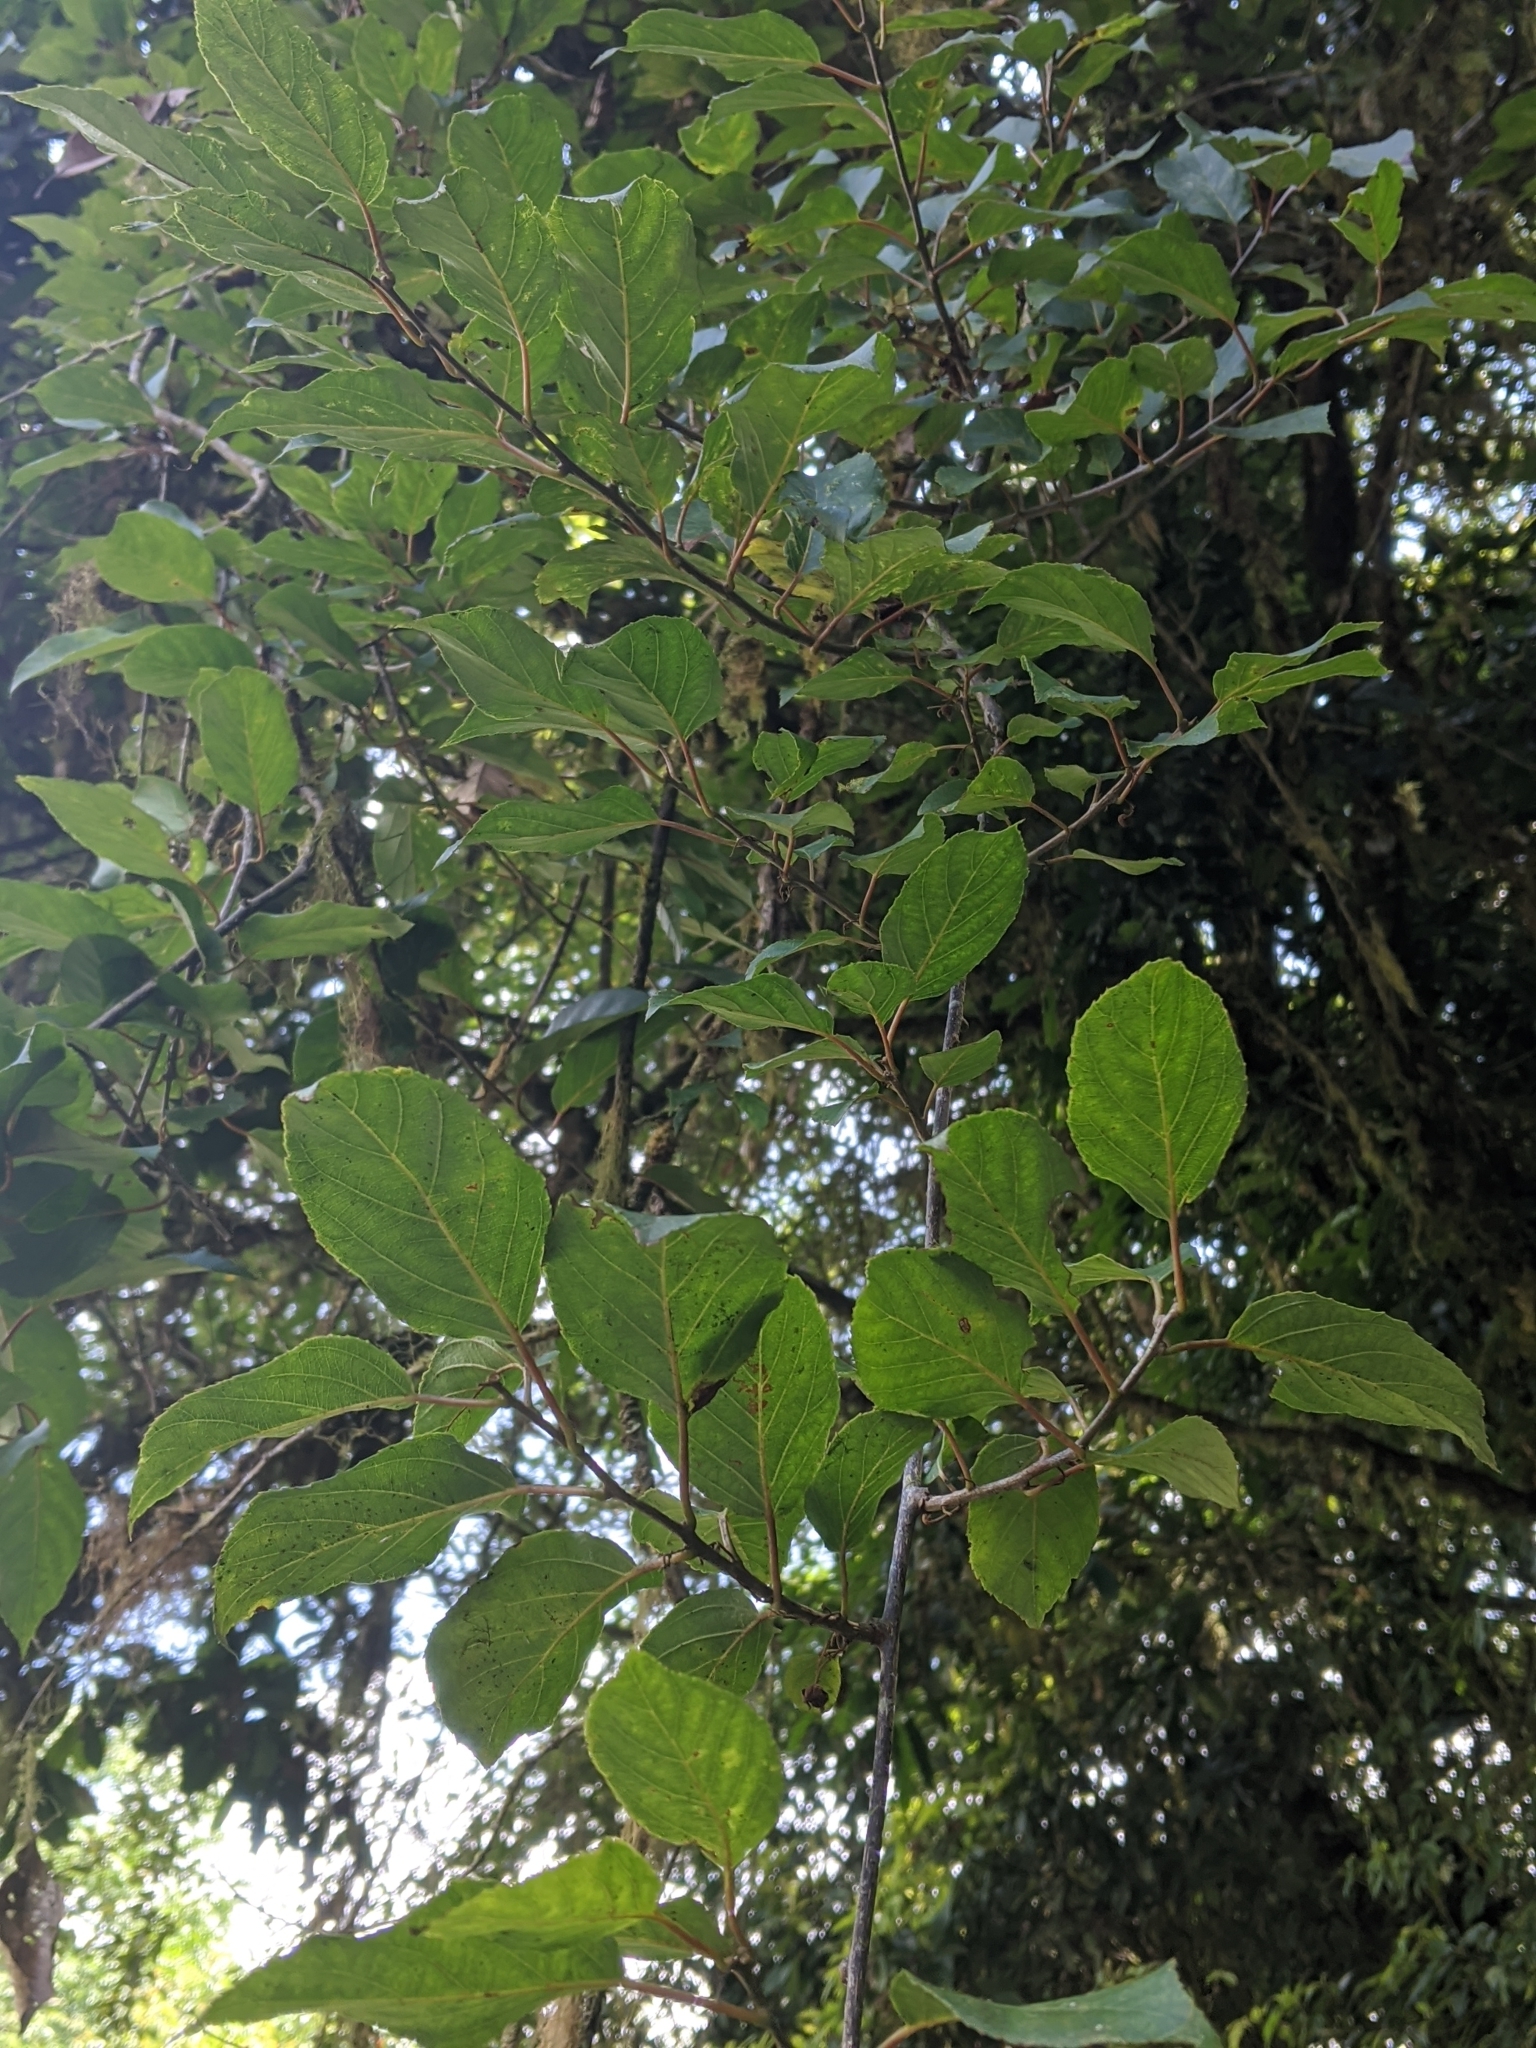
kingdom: Plantae
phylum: Tracheophyta
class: Magnoliopsida
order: Ericales
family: Actinidiaceae
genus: Actinidia
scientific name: Actinidia rufa
